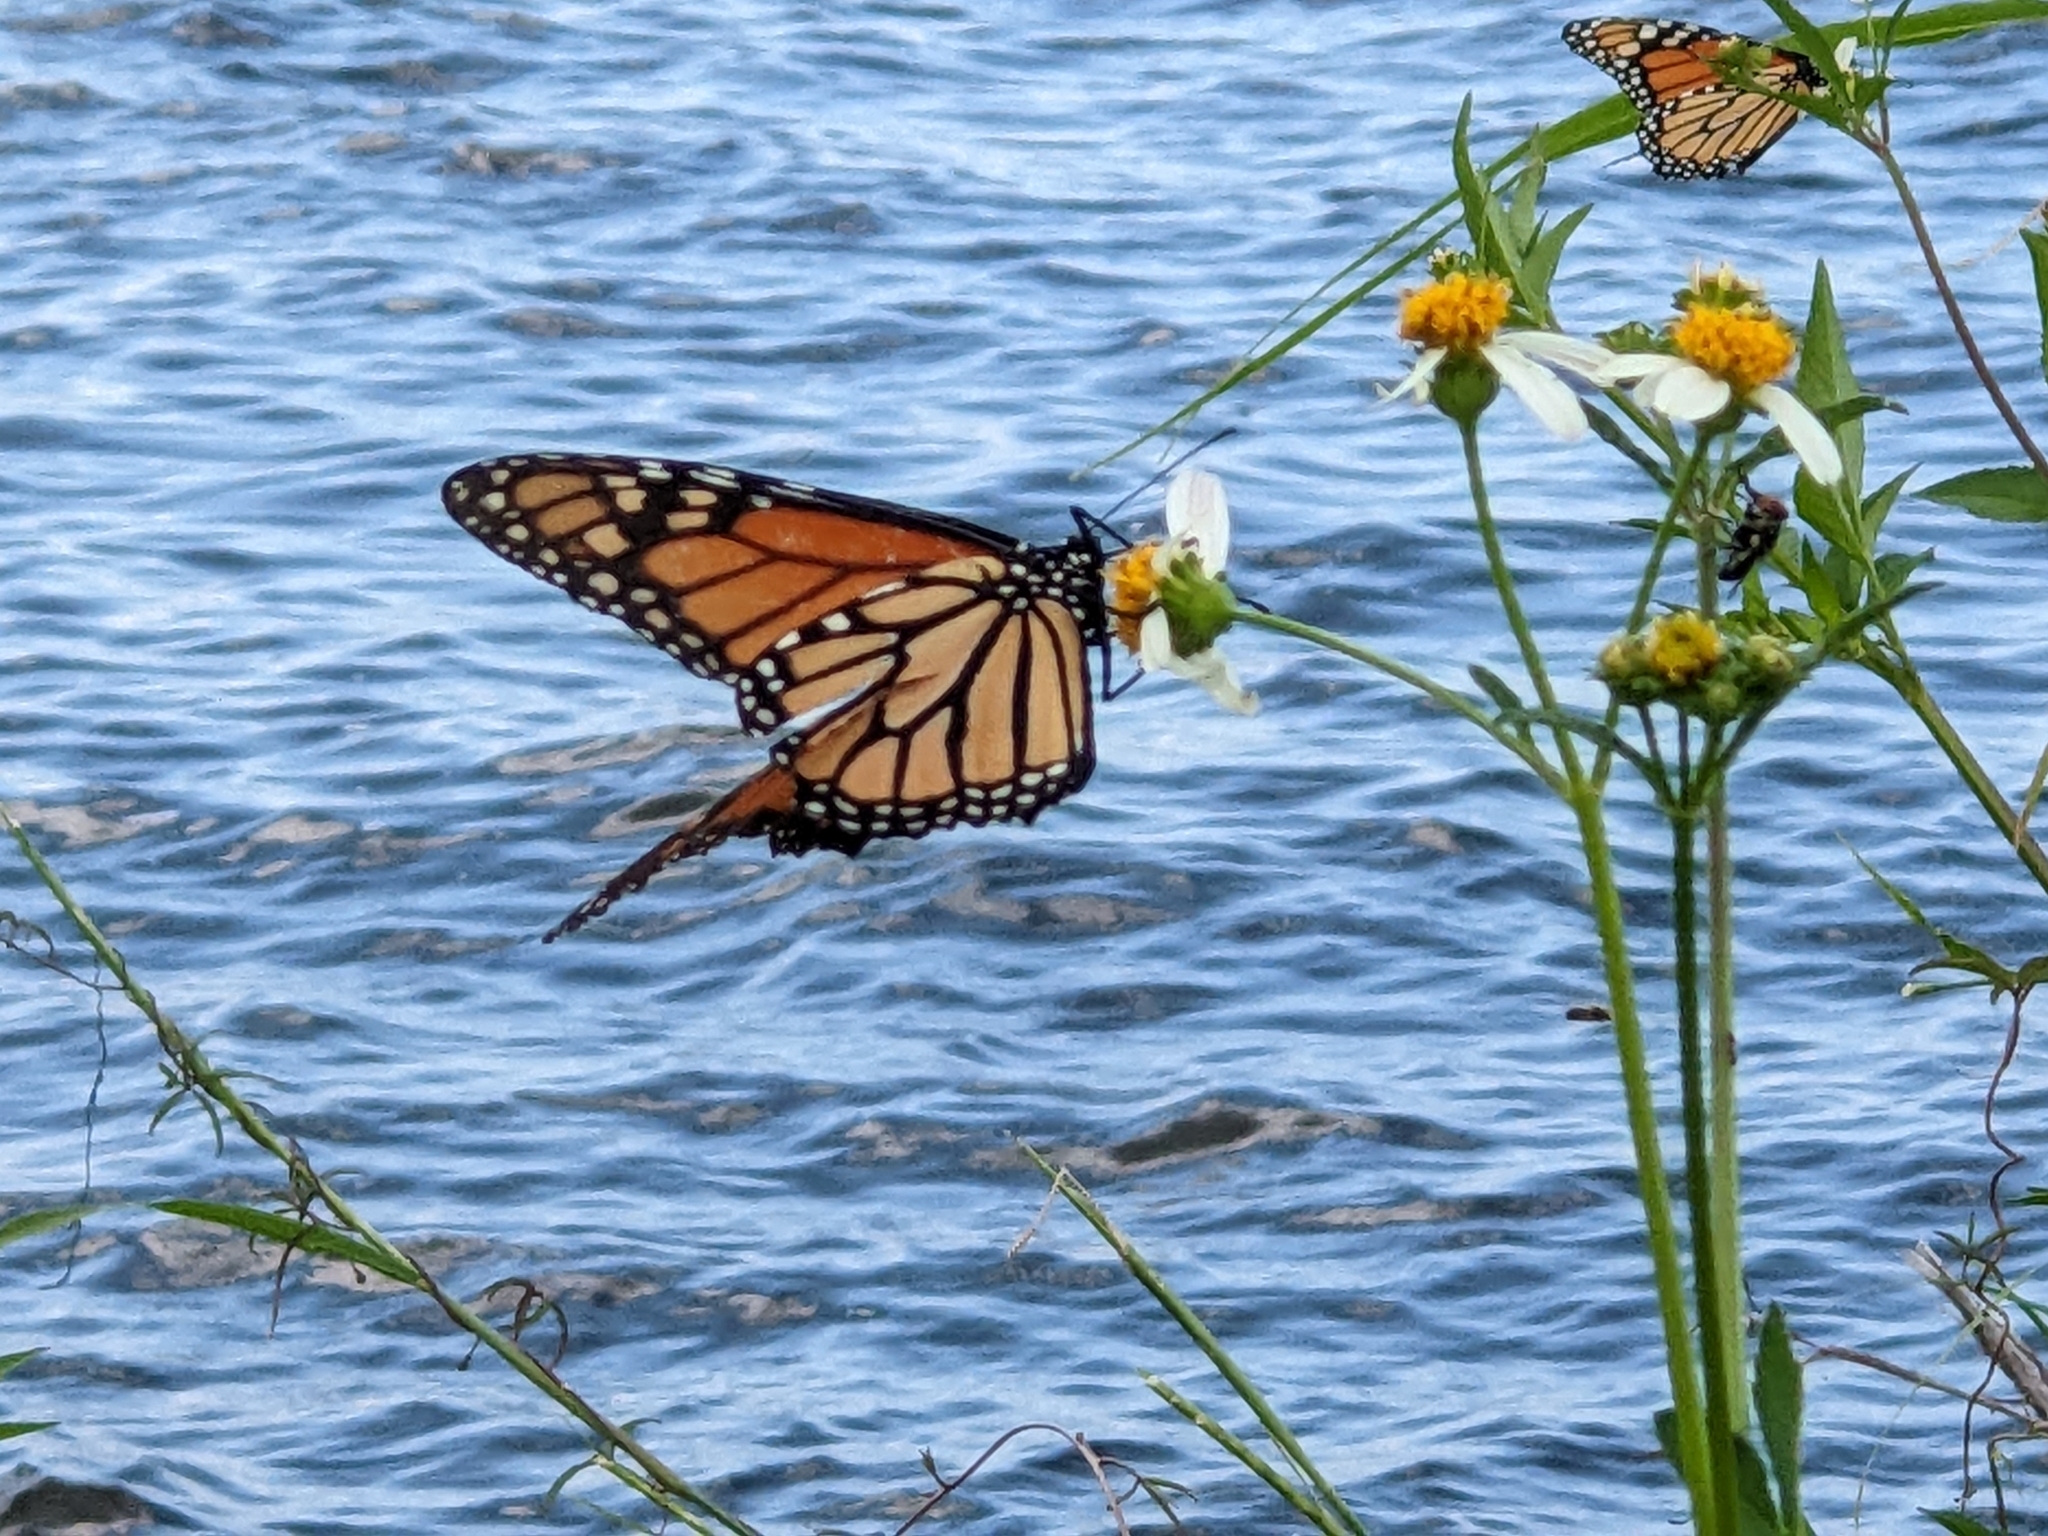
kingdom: Animalia
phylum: Arthropoda
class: Insecta
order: Lepidoptera
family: Nymphalidae
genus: Danaus
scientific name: Danaus plexippus
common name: Monarch
